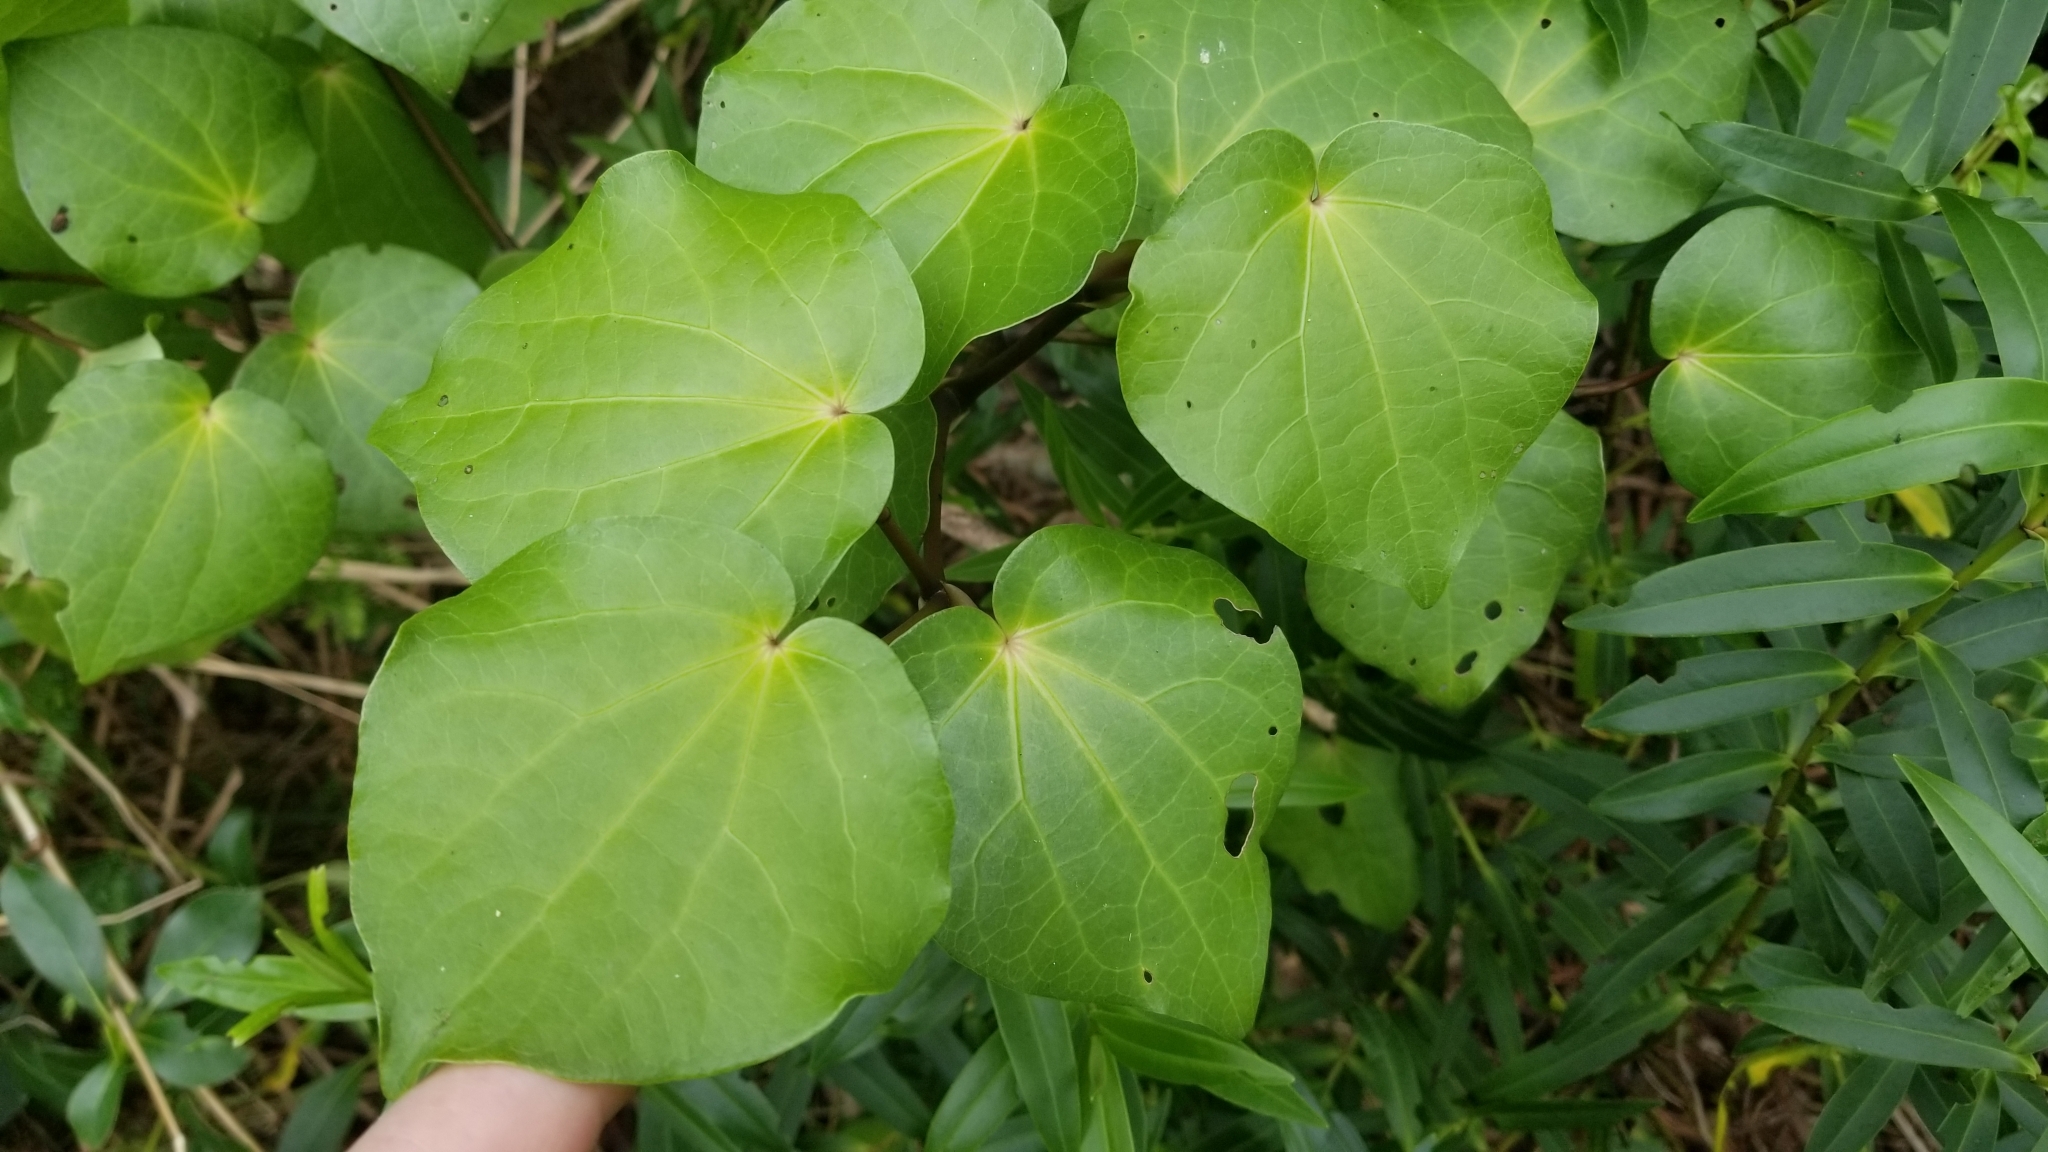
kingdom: Plantae
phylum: Tracheophyta
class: Magnoliopsida
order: Piperales
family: Piperaceae
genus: Macropiper
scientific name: Macropiper excelsum
